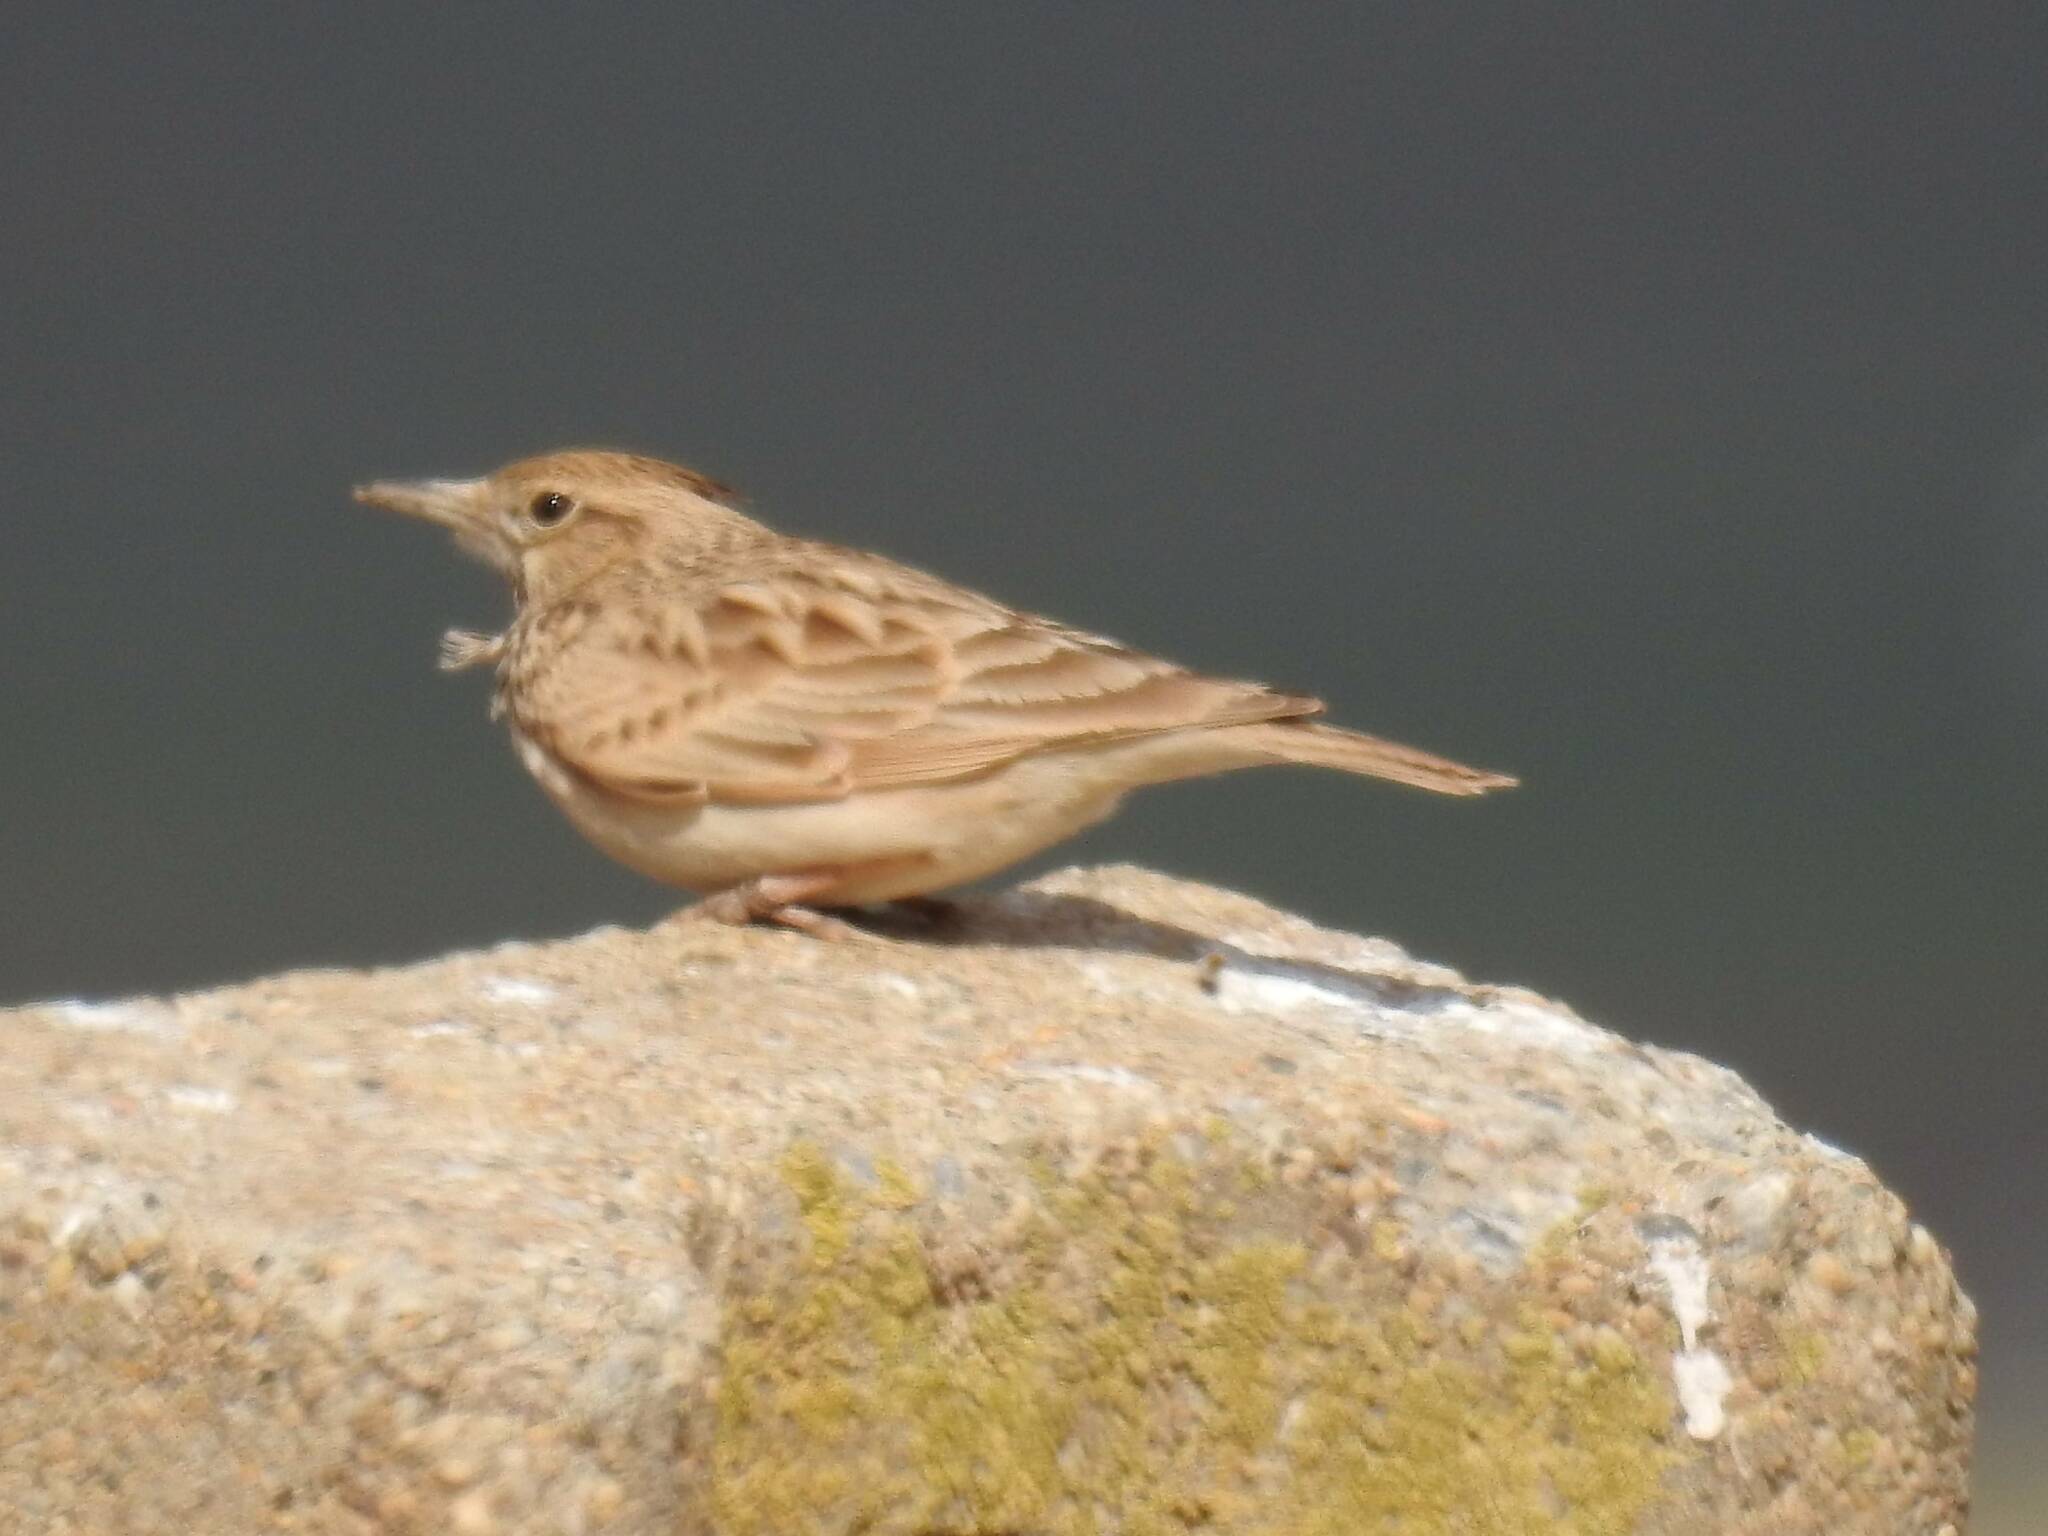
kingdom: Animalia
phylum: Chordata
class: Aves
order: Passeriformes
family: Alaudidae
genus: Galerida
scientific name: Galerida cristata
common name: Crested lark
